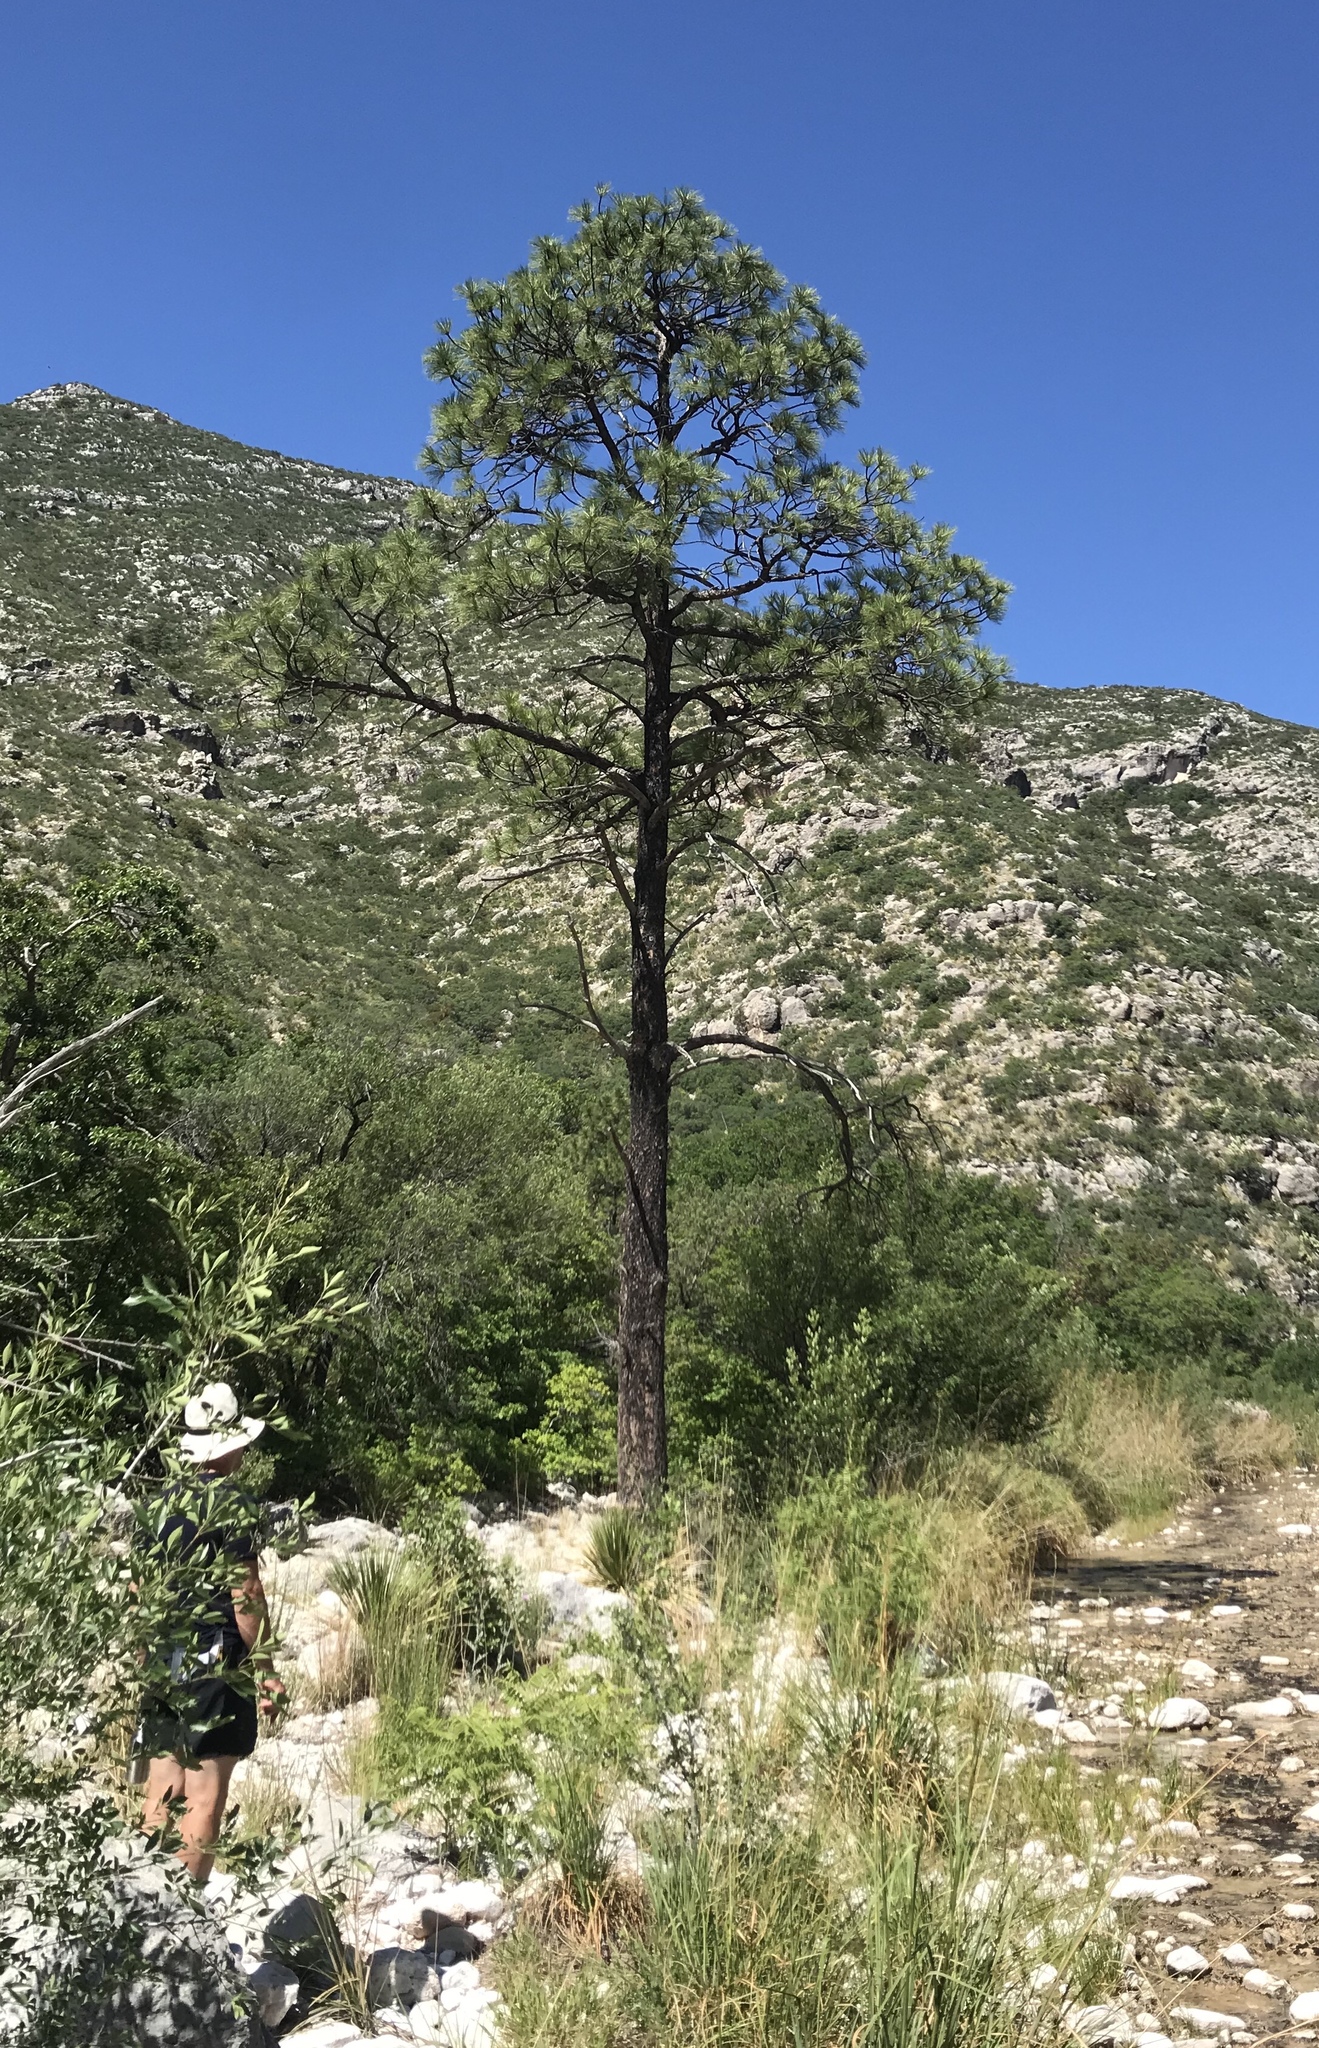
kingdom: Plantae
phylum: Tracheophyta
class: Pinopsida
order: Pinales
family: Pinaceae
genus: Pinus
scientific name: Pinus ponderosa
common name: Western yellow-pine
